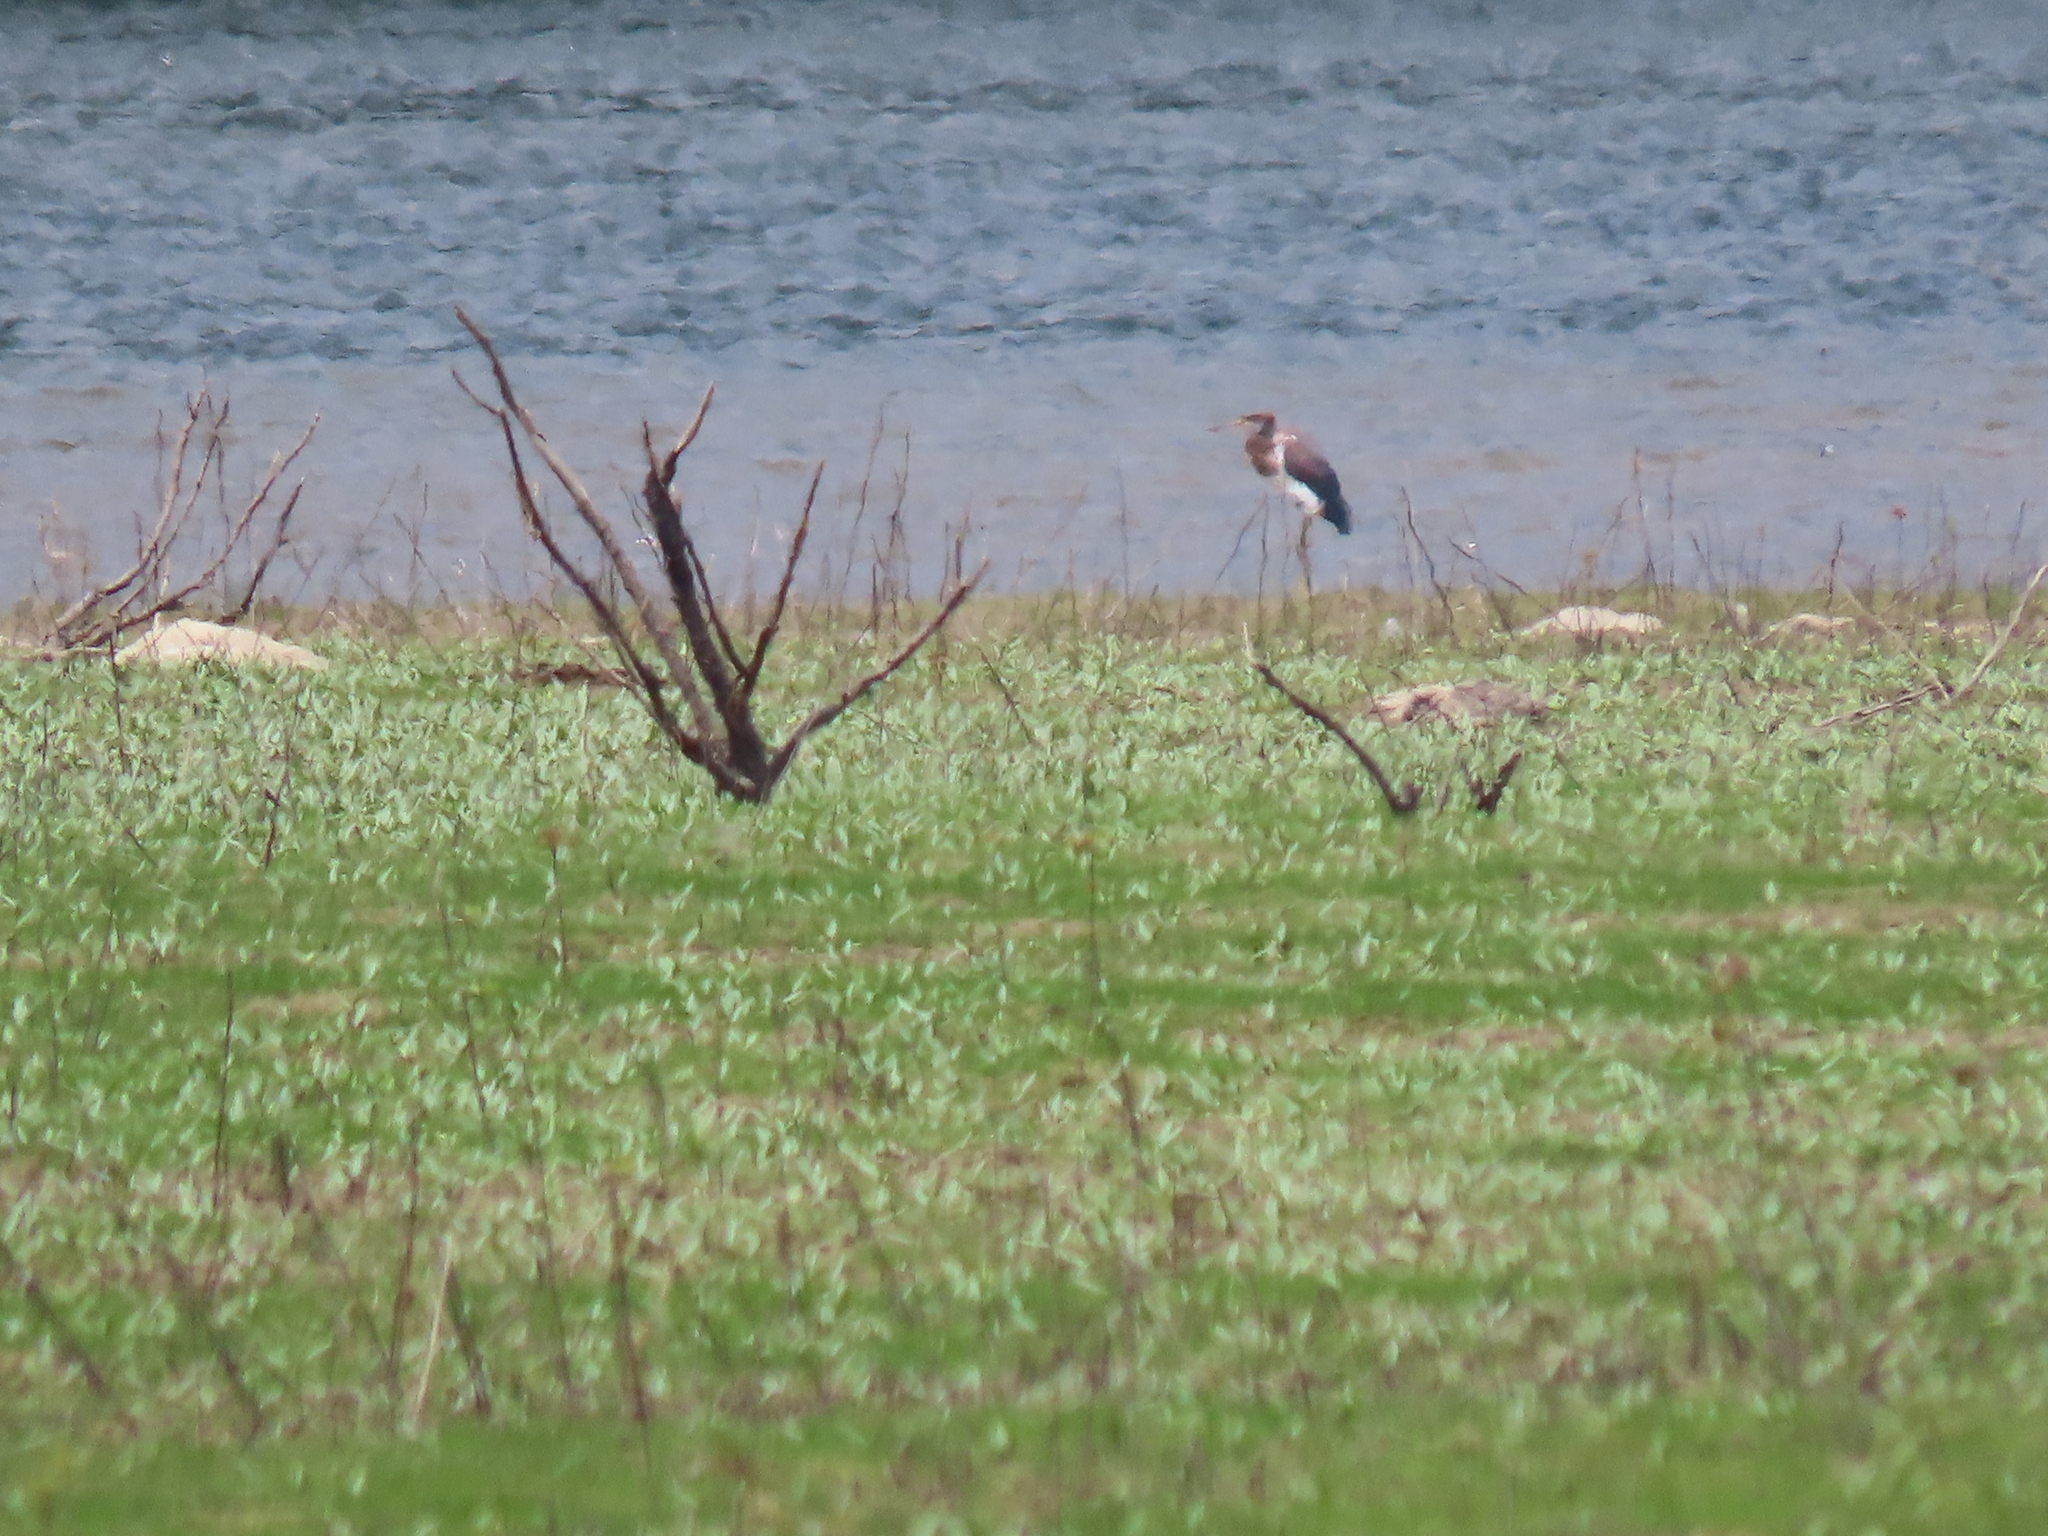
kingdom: Animalia
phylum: Chordata
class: Aves
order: Pelecaniformes
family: Ardeidae
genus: Egretta
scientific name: Egretta tricolor
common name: Tricolored heron
